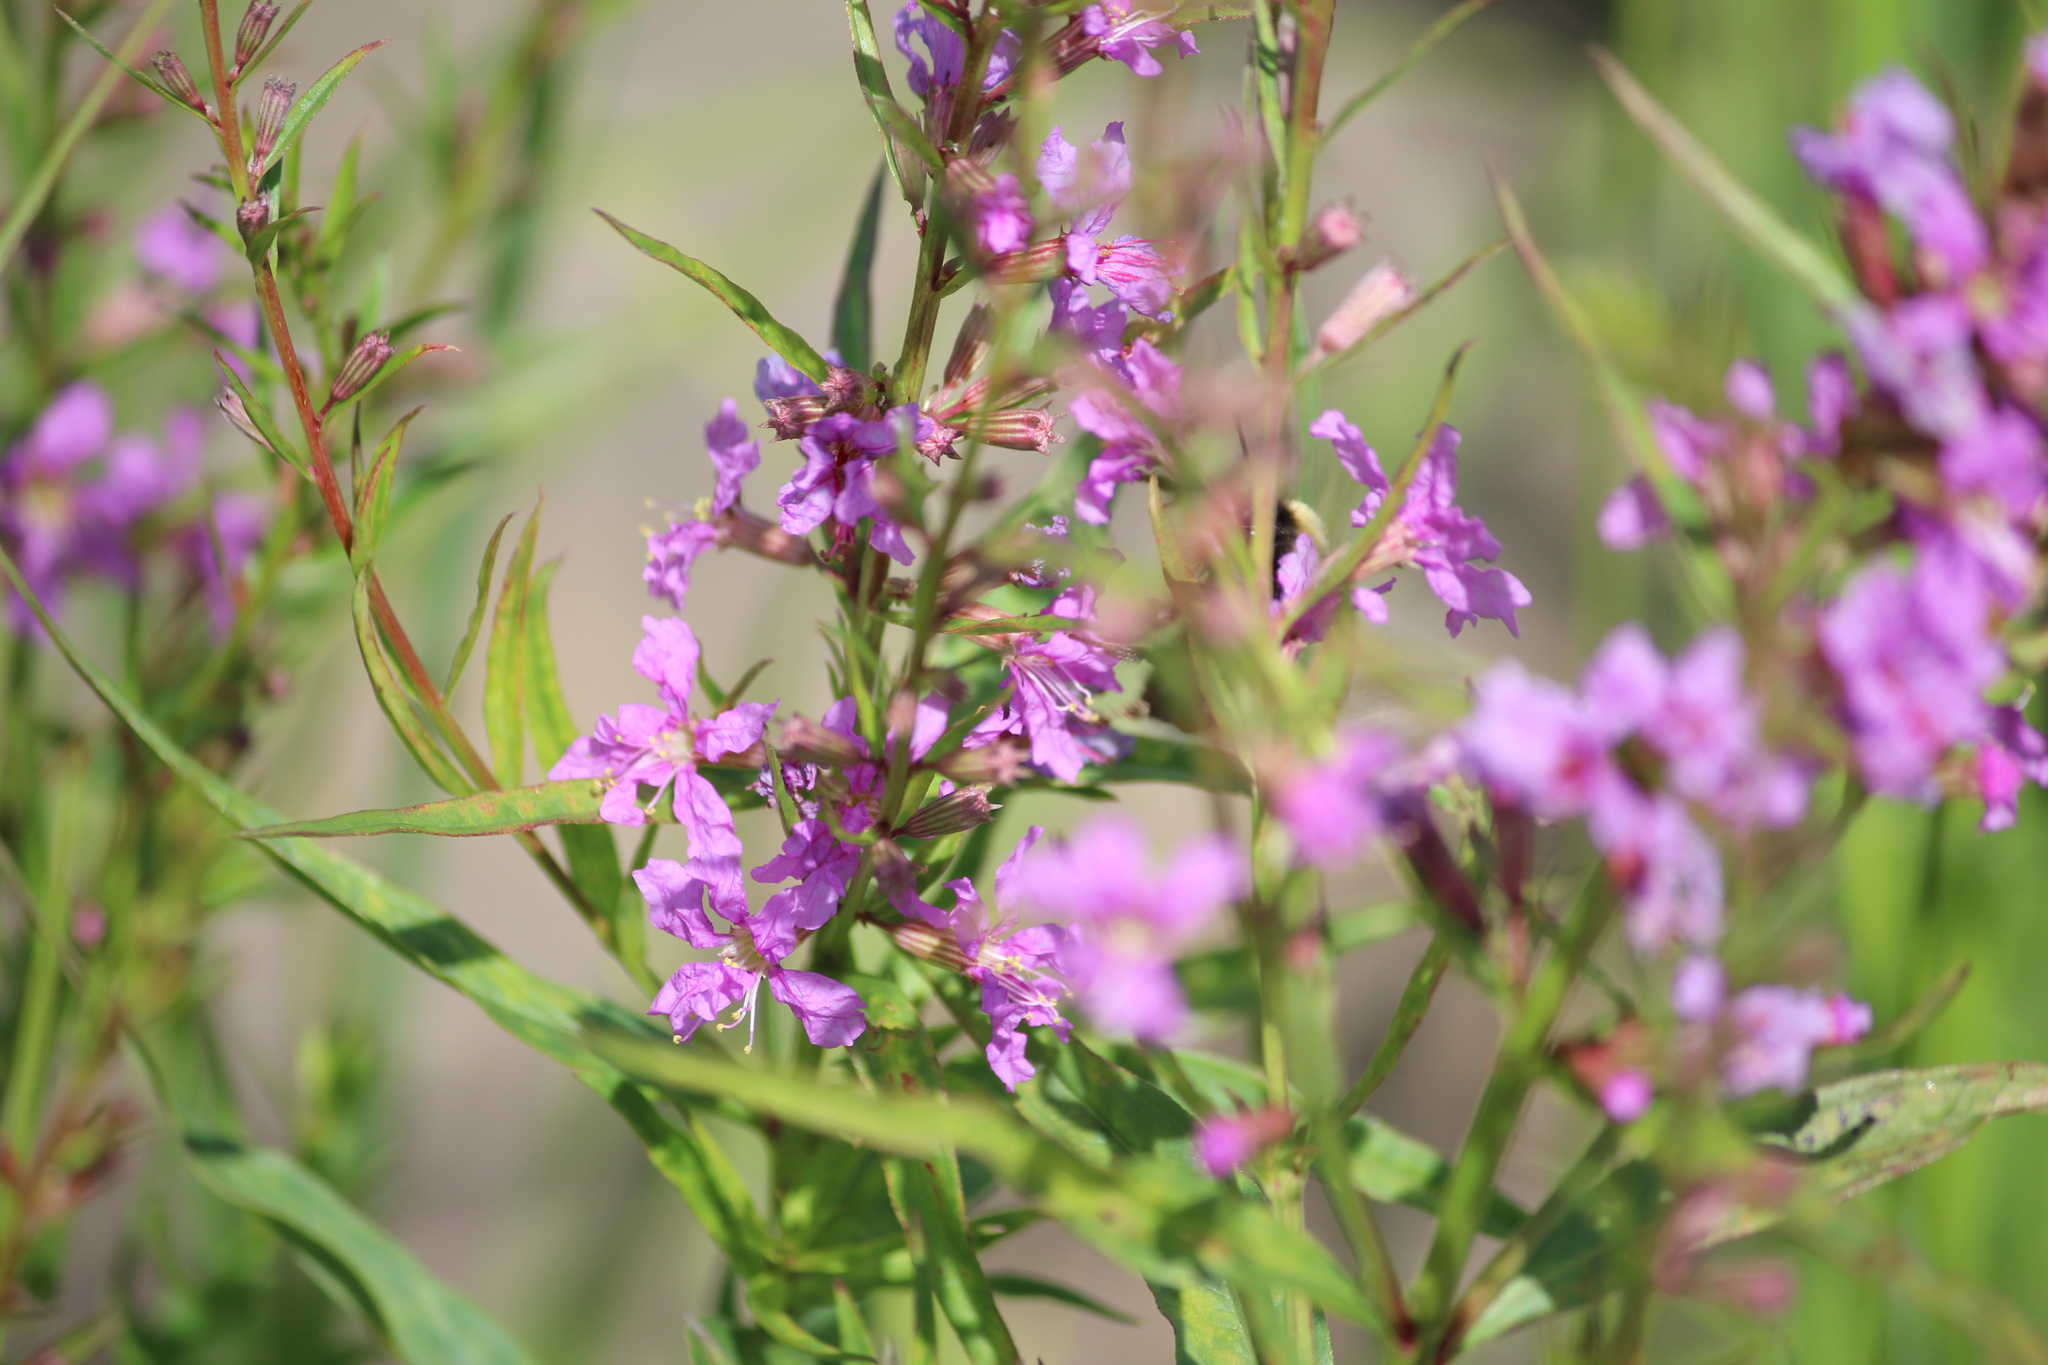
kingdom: Plantae
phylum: Tracheophyta
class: Magnoliopsida
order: Myrtales
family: Lythraceae
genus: Lythrum
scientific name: Lythrum virgatum
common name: European wand loosestrife
